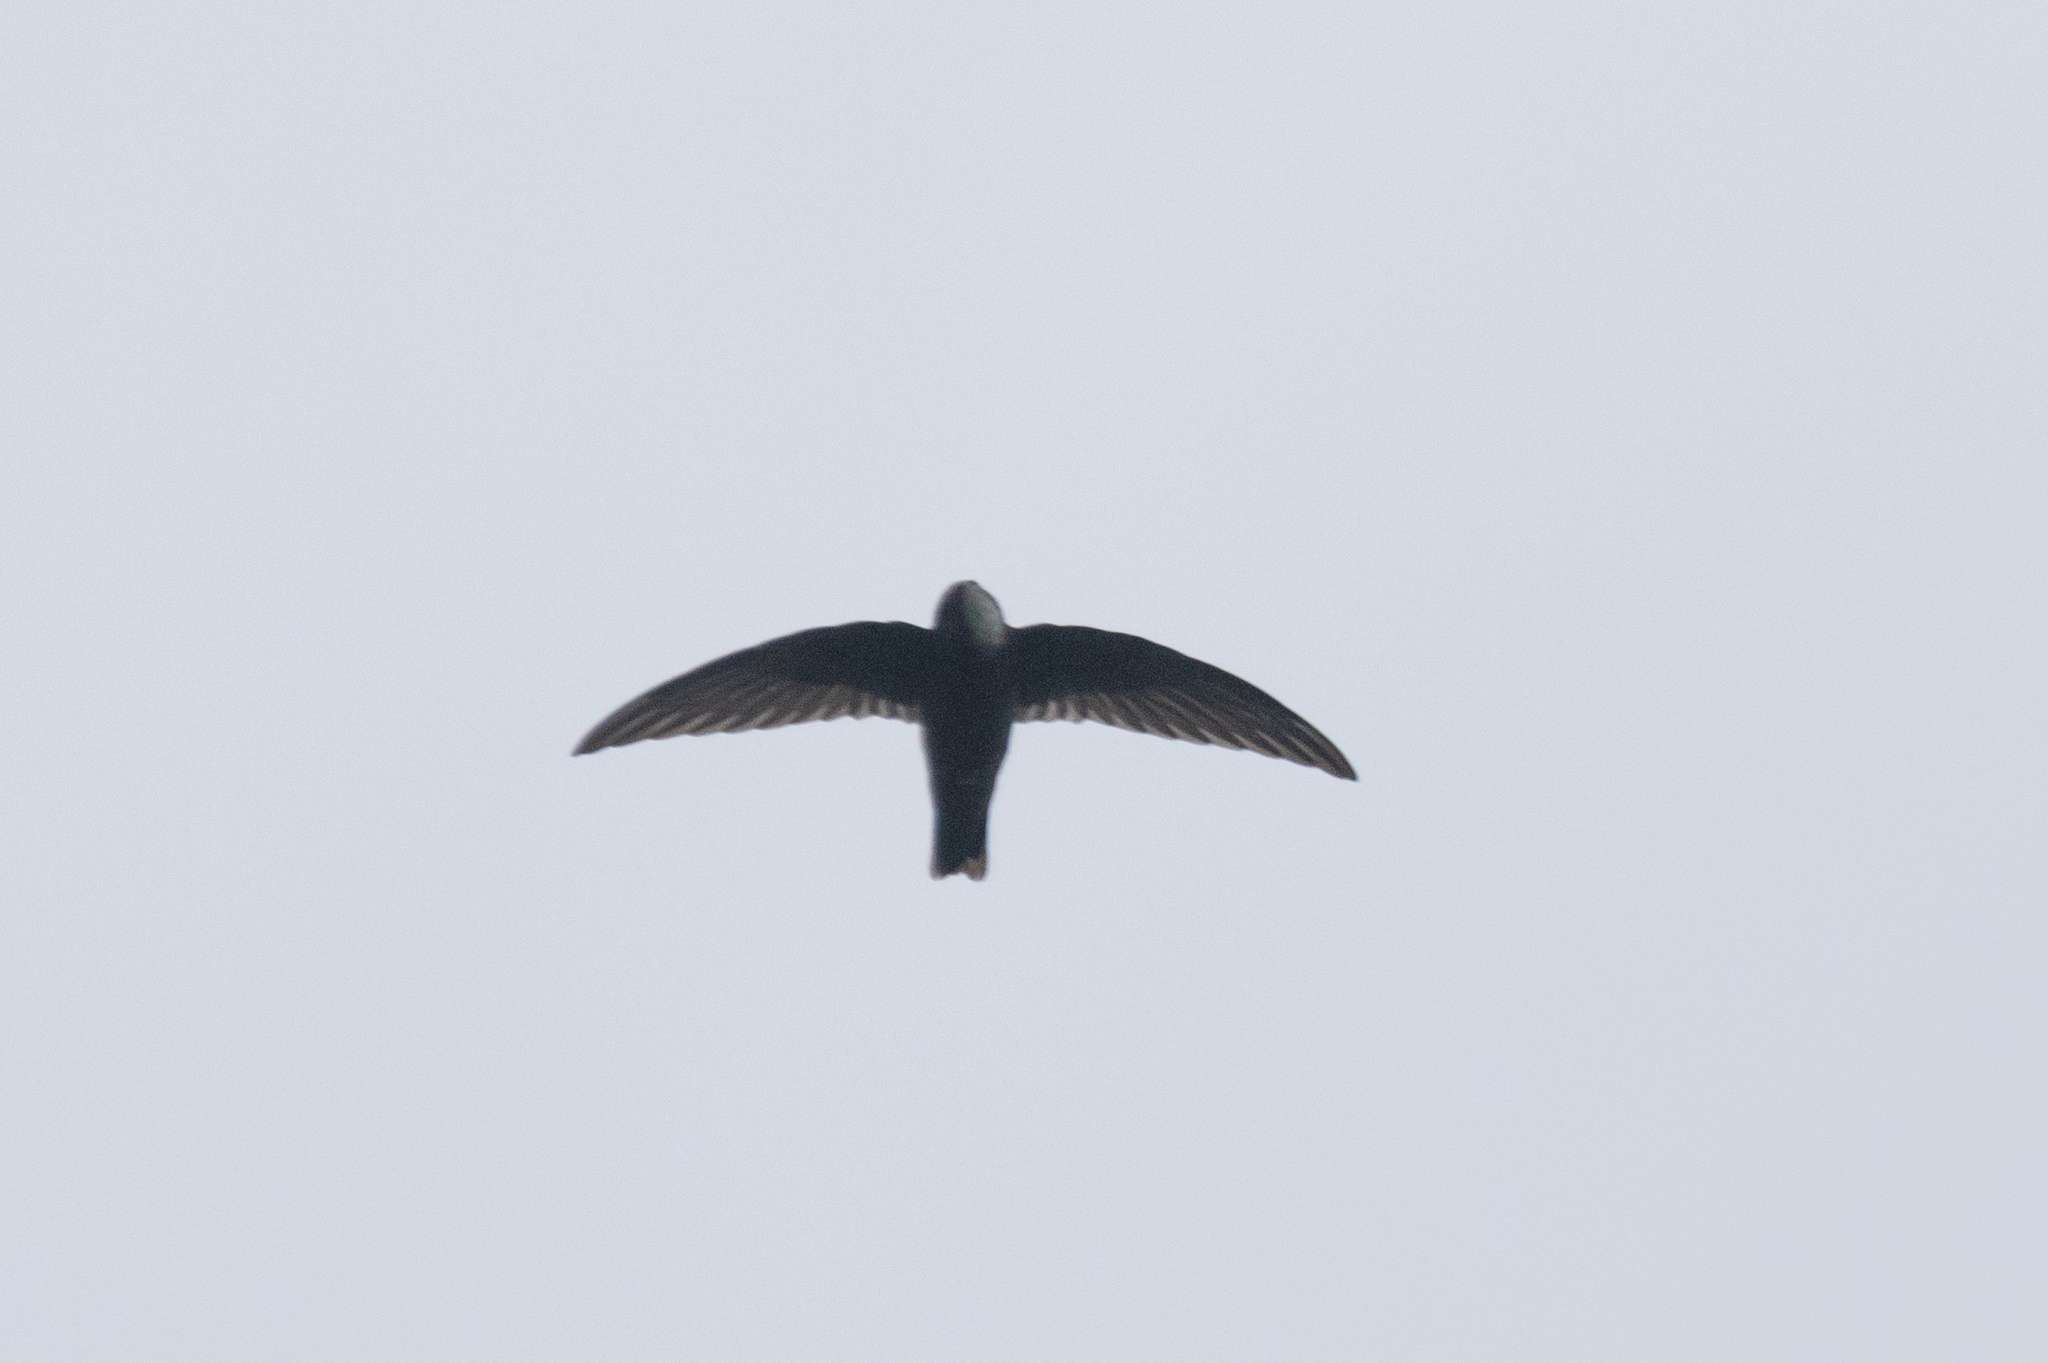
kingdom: Animalia
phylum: Chordata
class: Aves
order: Apodiformes
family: Apodidae
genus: Apus
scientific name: Apus nipalensis
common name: House swift
